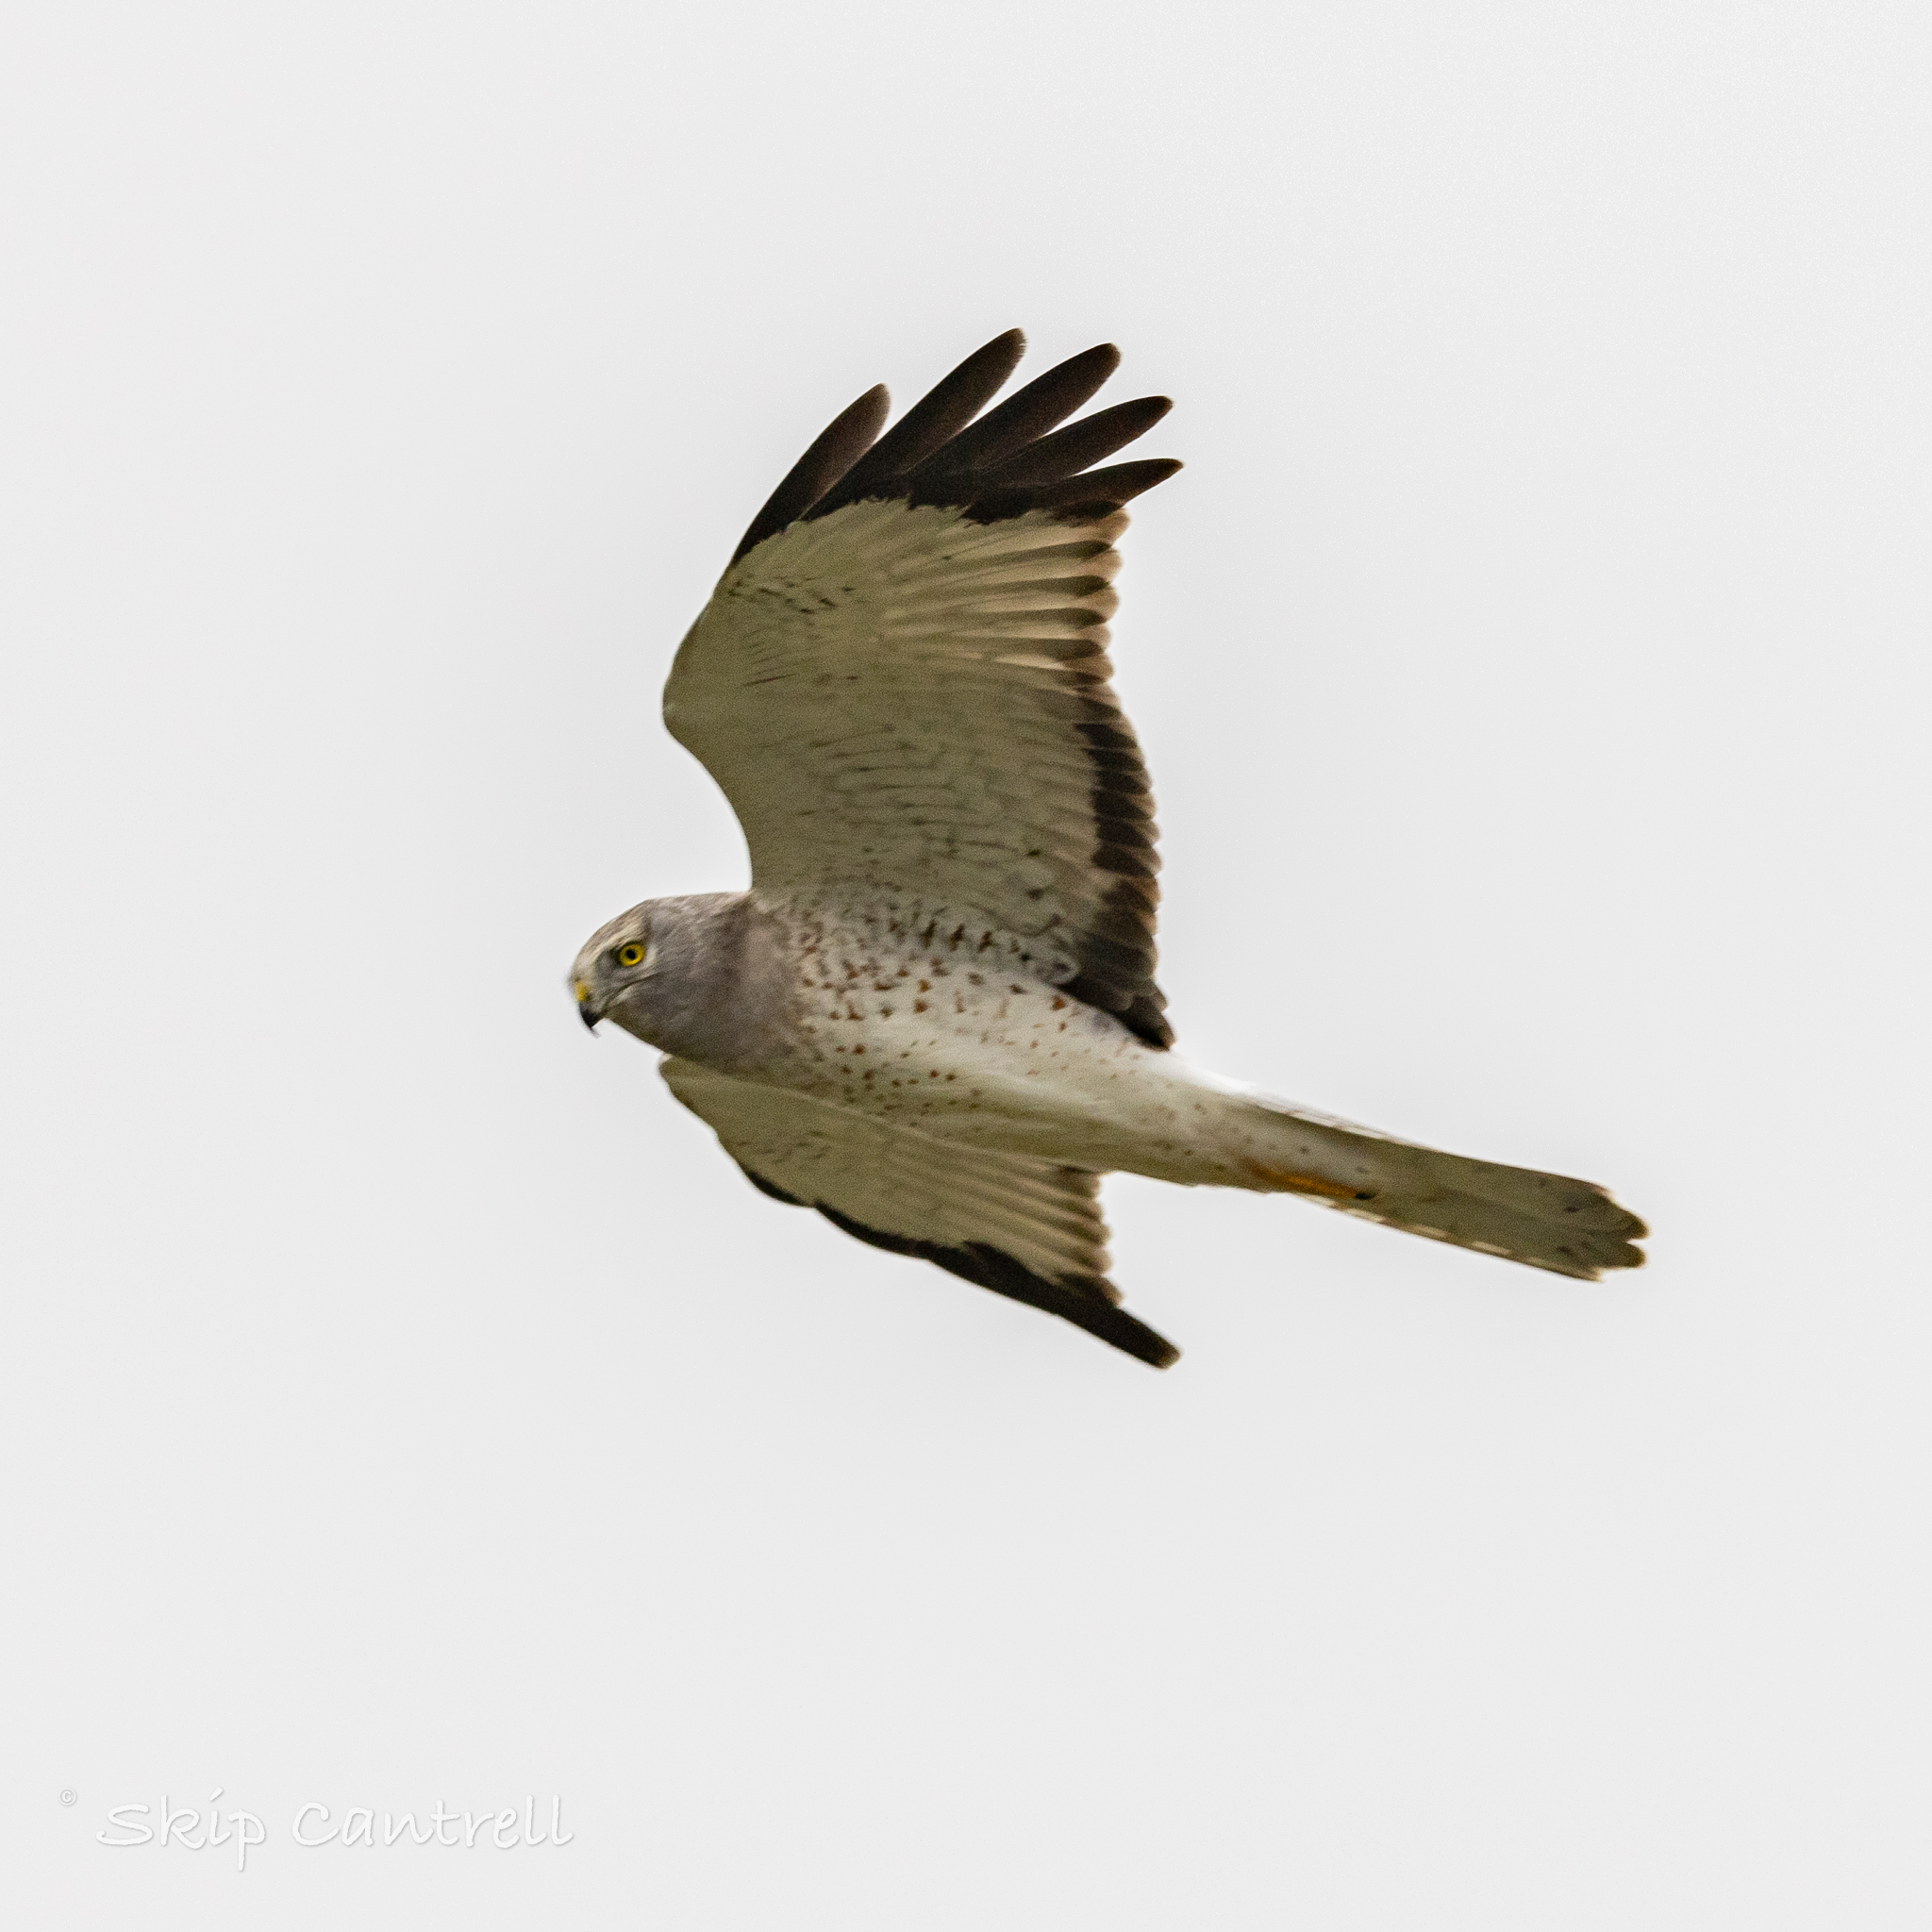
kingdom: Animalia
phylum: Chordata
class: Aves
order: Accipitriformes
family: Accipitridae
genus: Circus
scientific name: Circus cyaneus
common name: Hen harrier
